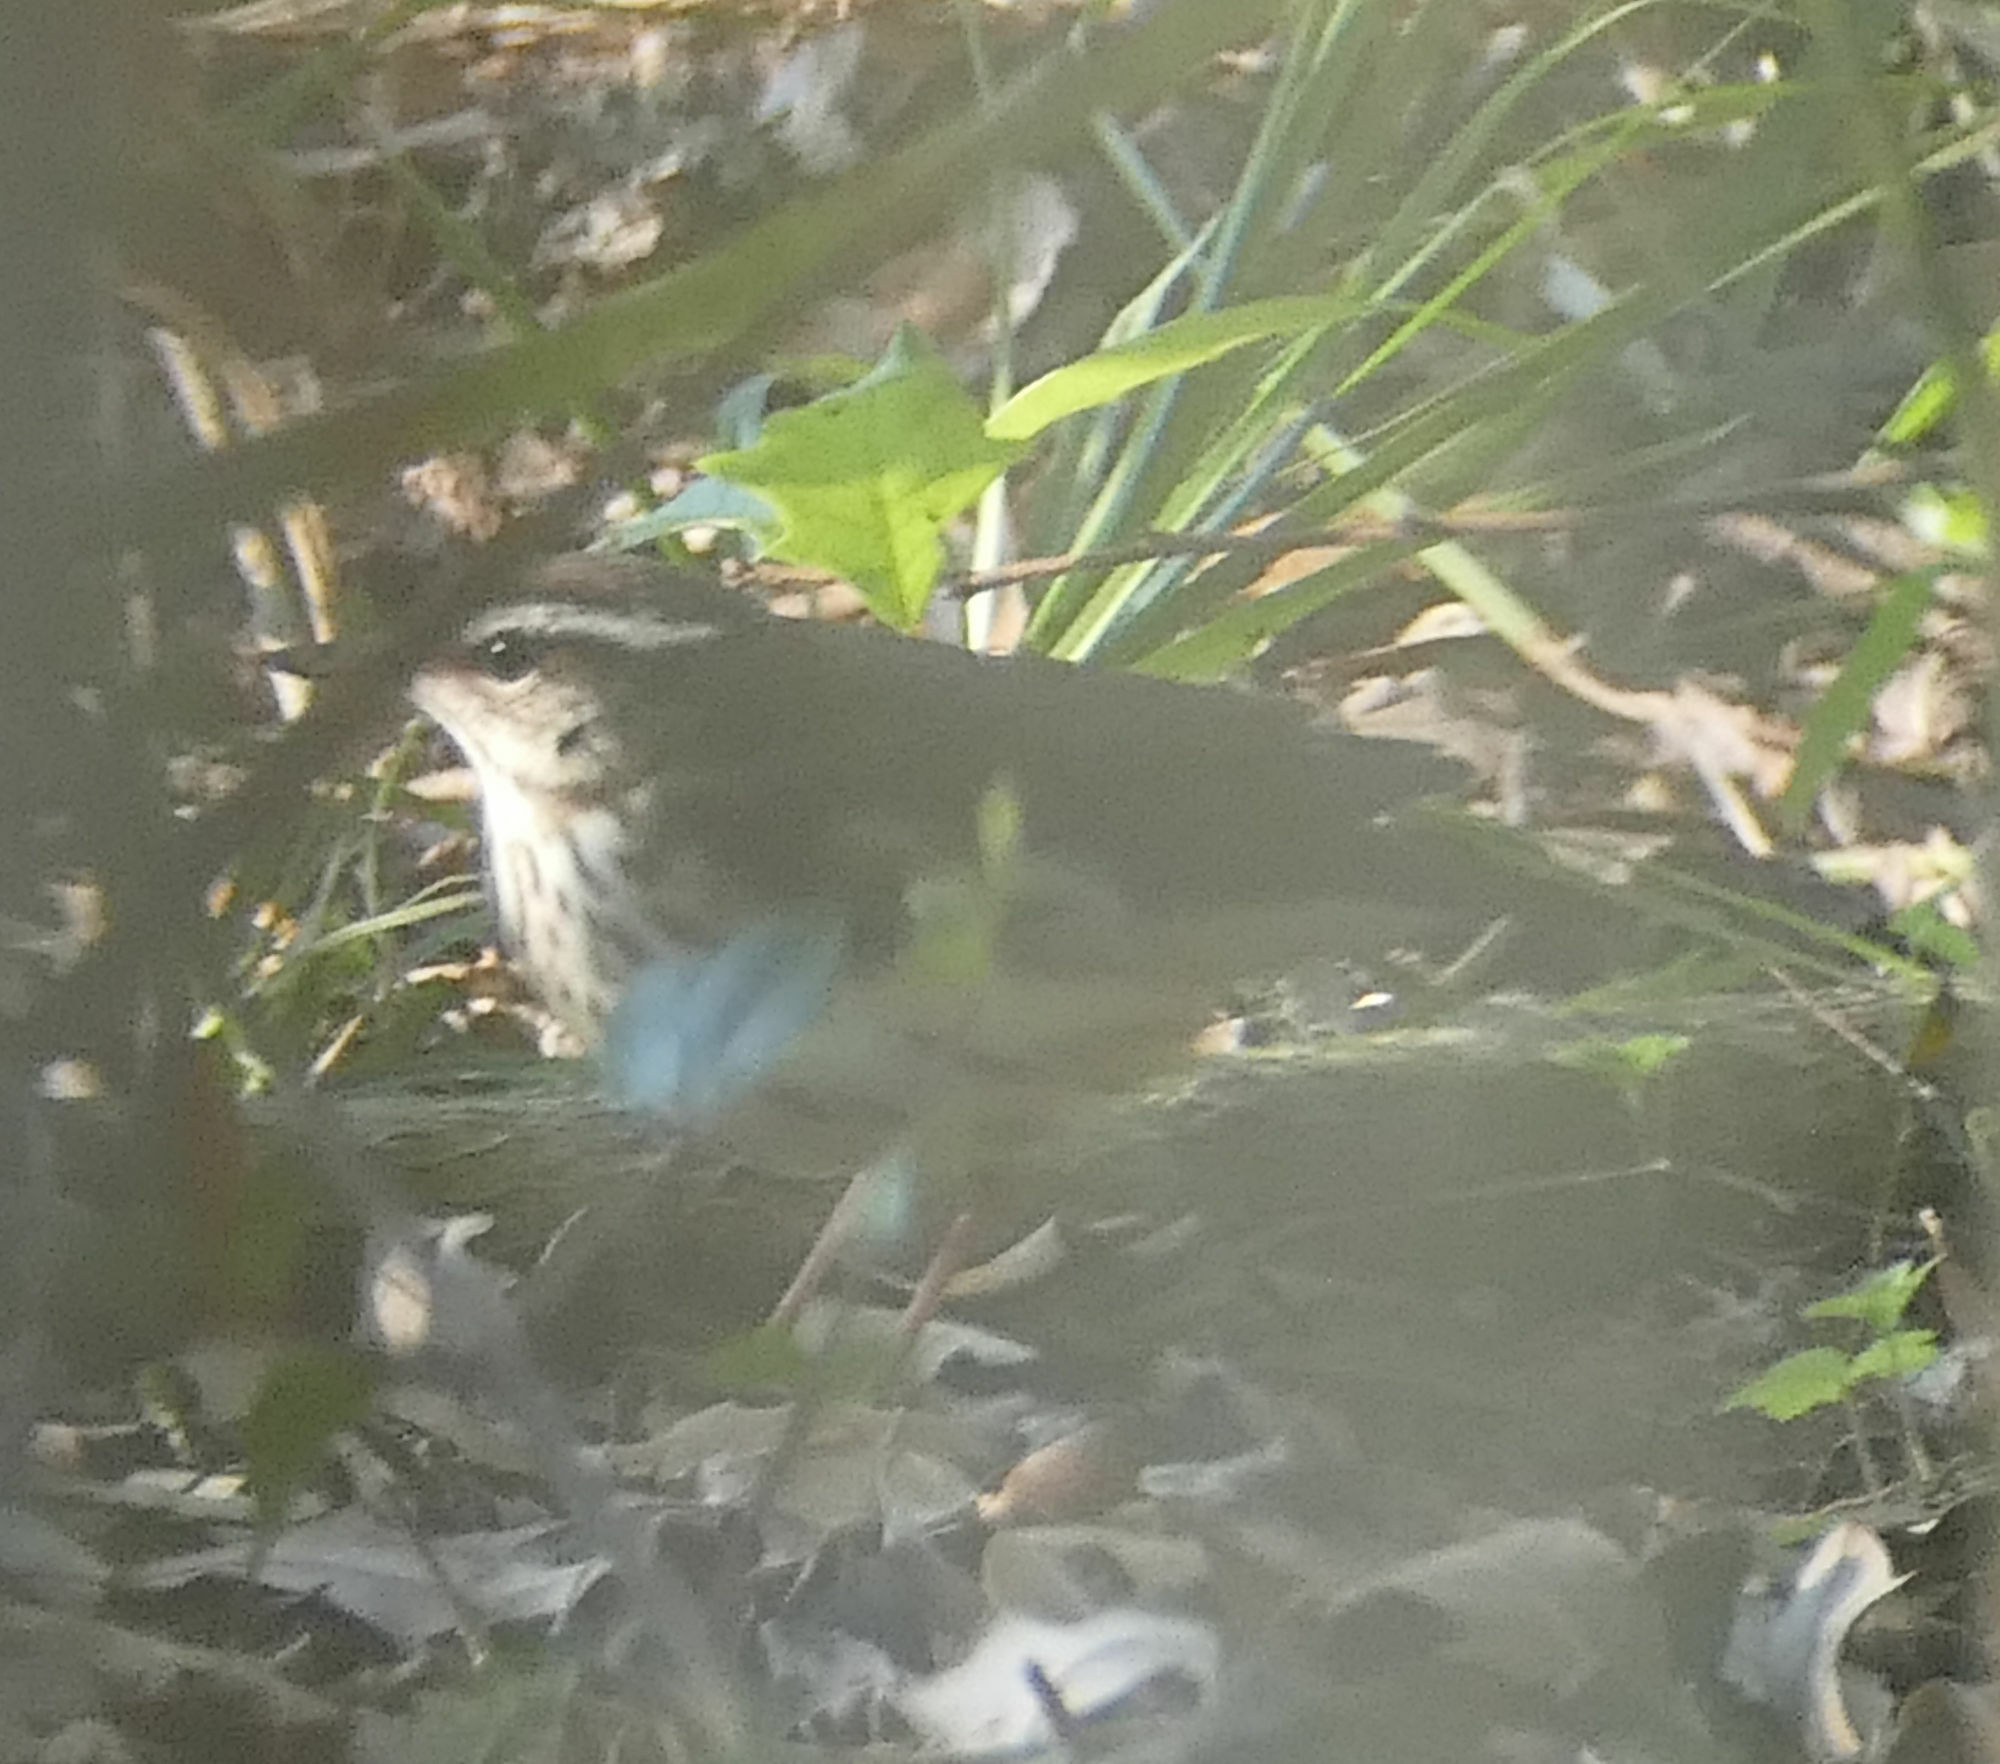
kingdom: Animalia
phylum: Chordata
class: Aves
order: Passeriformes
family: Parulidae
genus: Parkesia
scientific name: Parkesia motacilla
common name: Louisiana waterthrush
